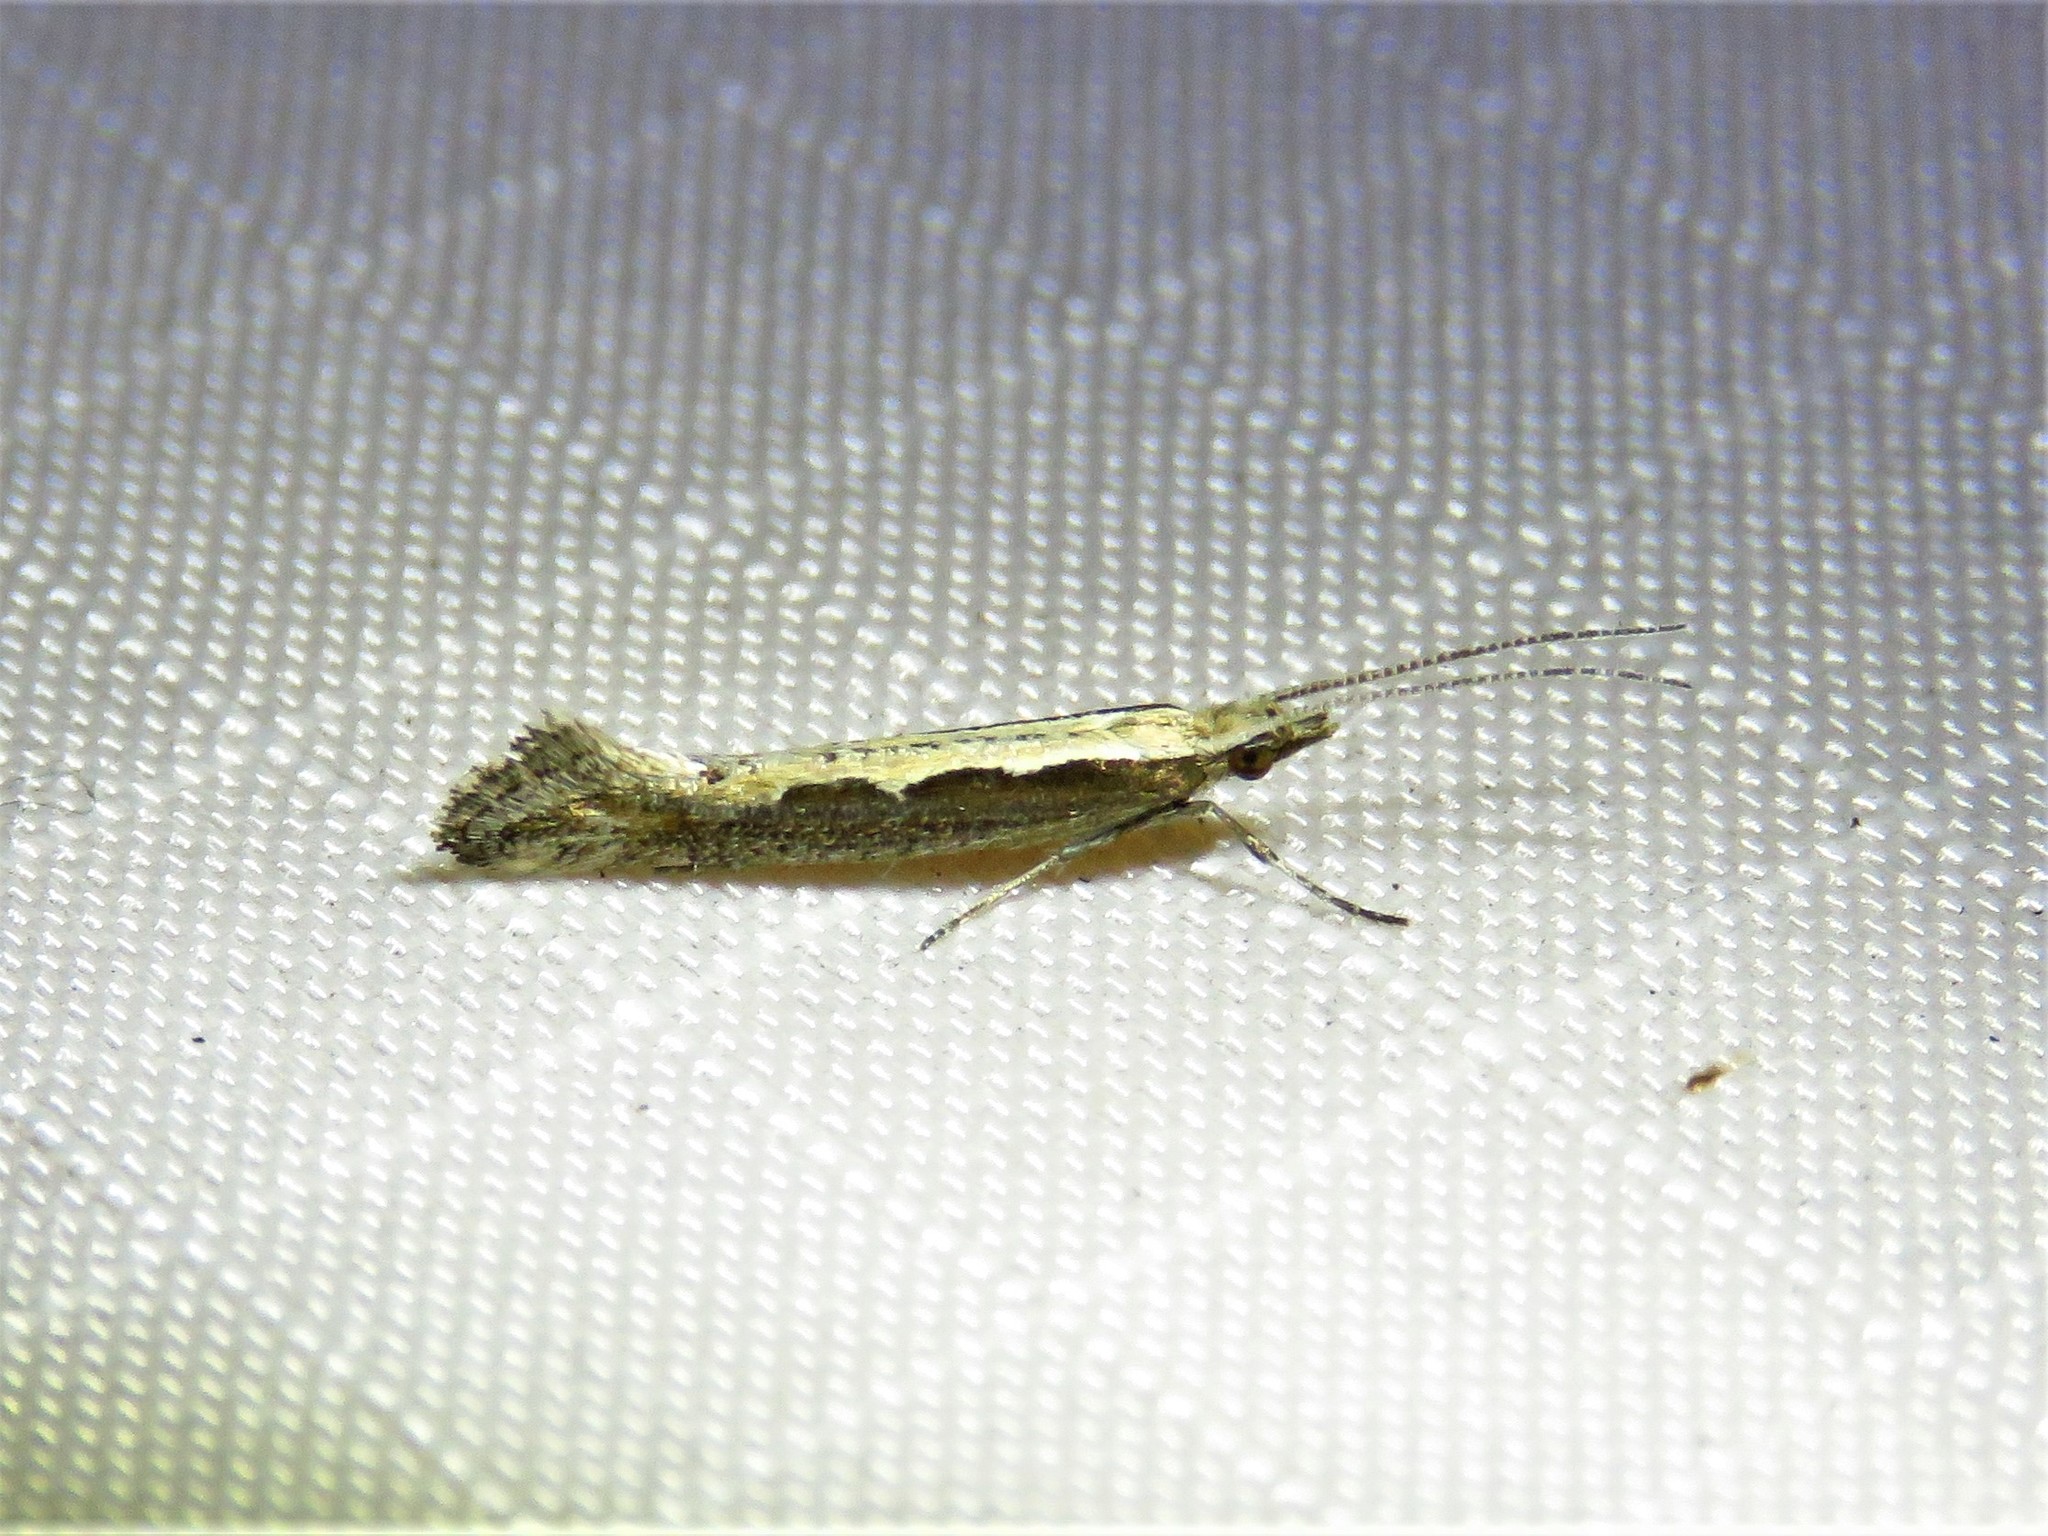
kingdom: Animalia
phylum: Arthropoda
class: Insecta
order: Lepidoptera
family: Plutellidae
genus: Plutella
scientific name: Plutella xylostella
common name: Diamond-back moth
